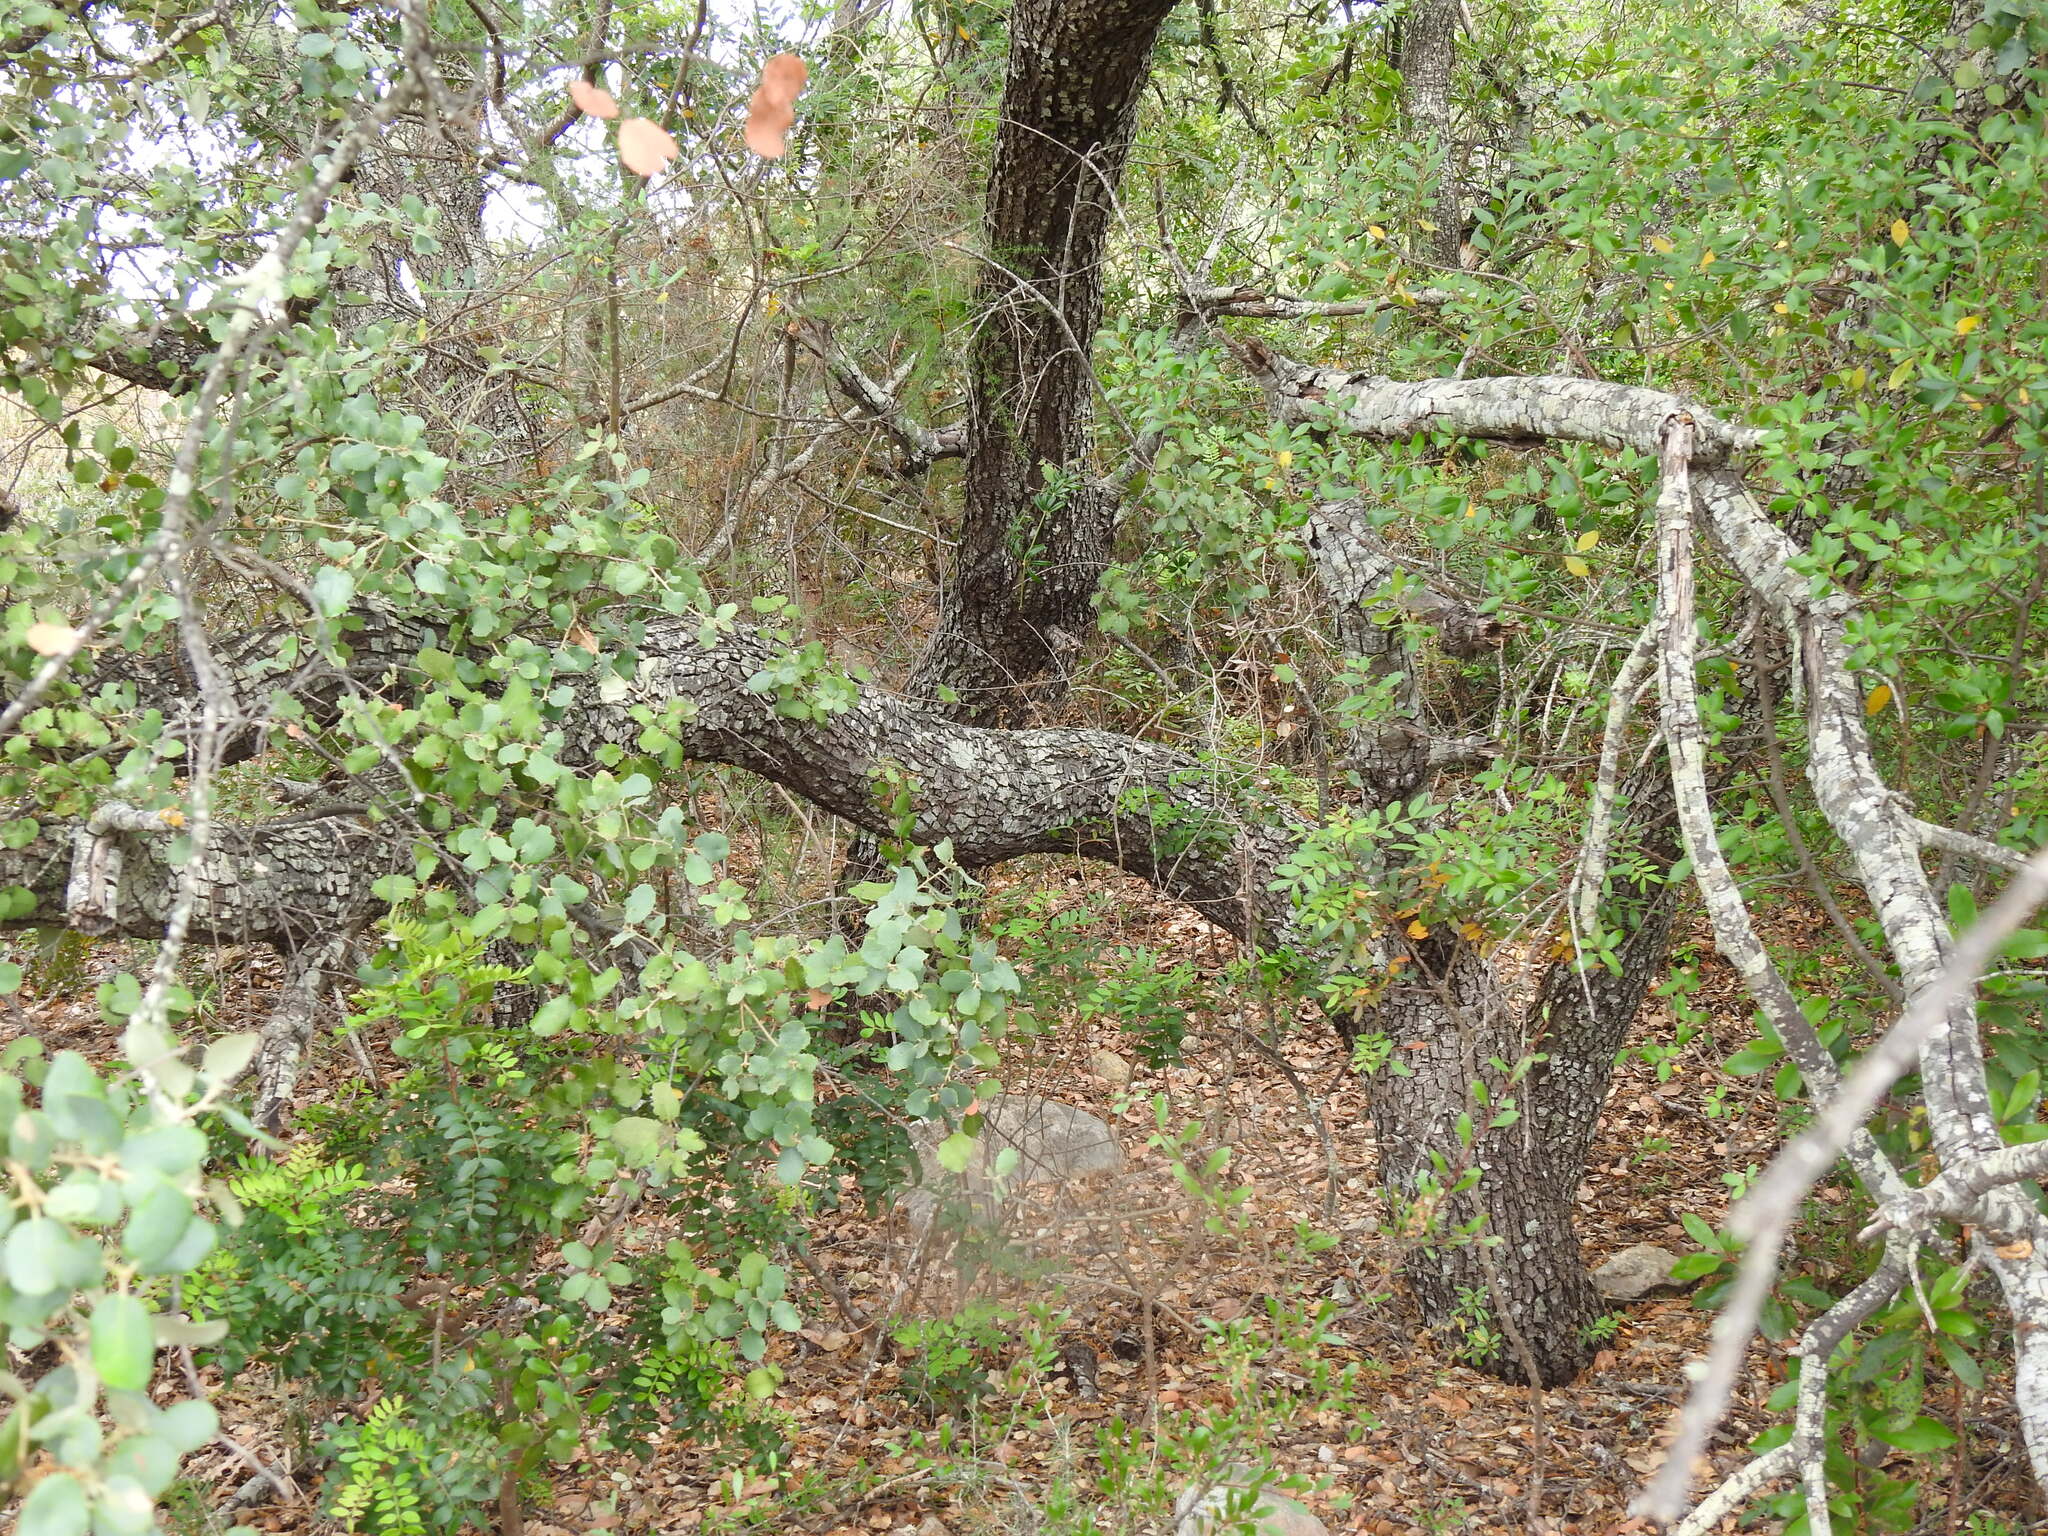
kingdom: Plantae
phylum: Tracheophyta
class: Magnoliopsida
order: Fagales
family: Fagaceae
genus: Quercus
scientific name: Quercus rotundifolia
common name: Holm oak
